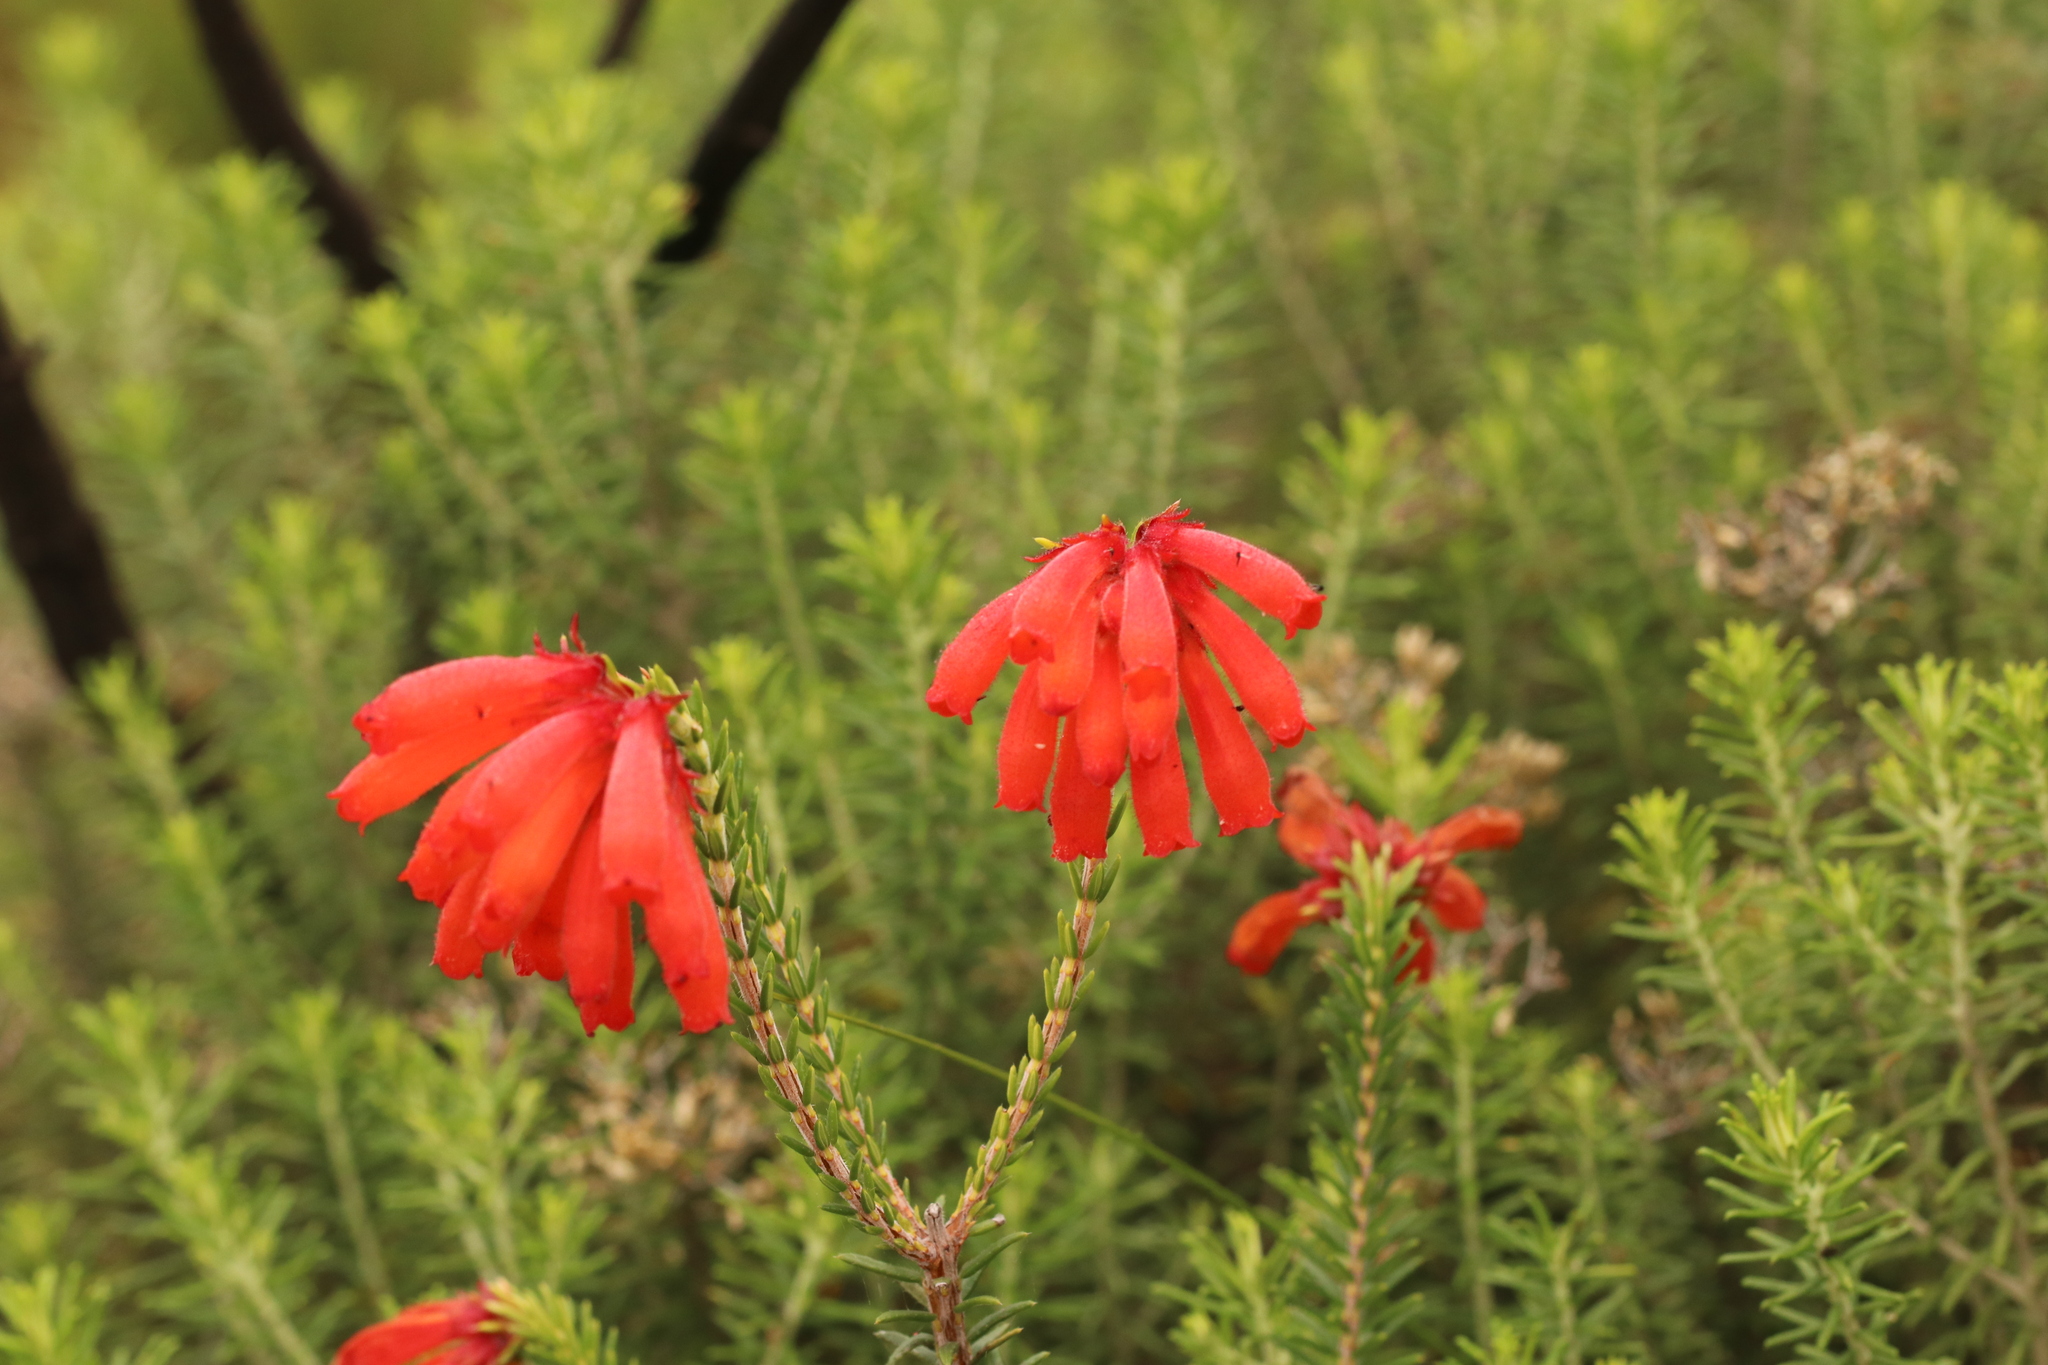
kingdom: Plantae
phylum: Tracheophyta
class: Magnoliopsida
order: Ericales
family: Ericaceae
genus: Erica
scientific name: Erica cerinthoides
